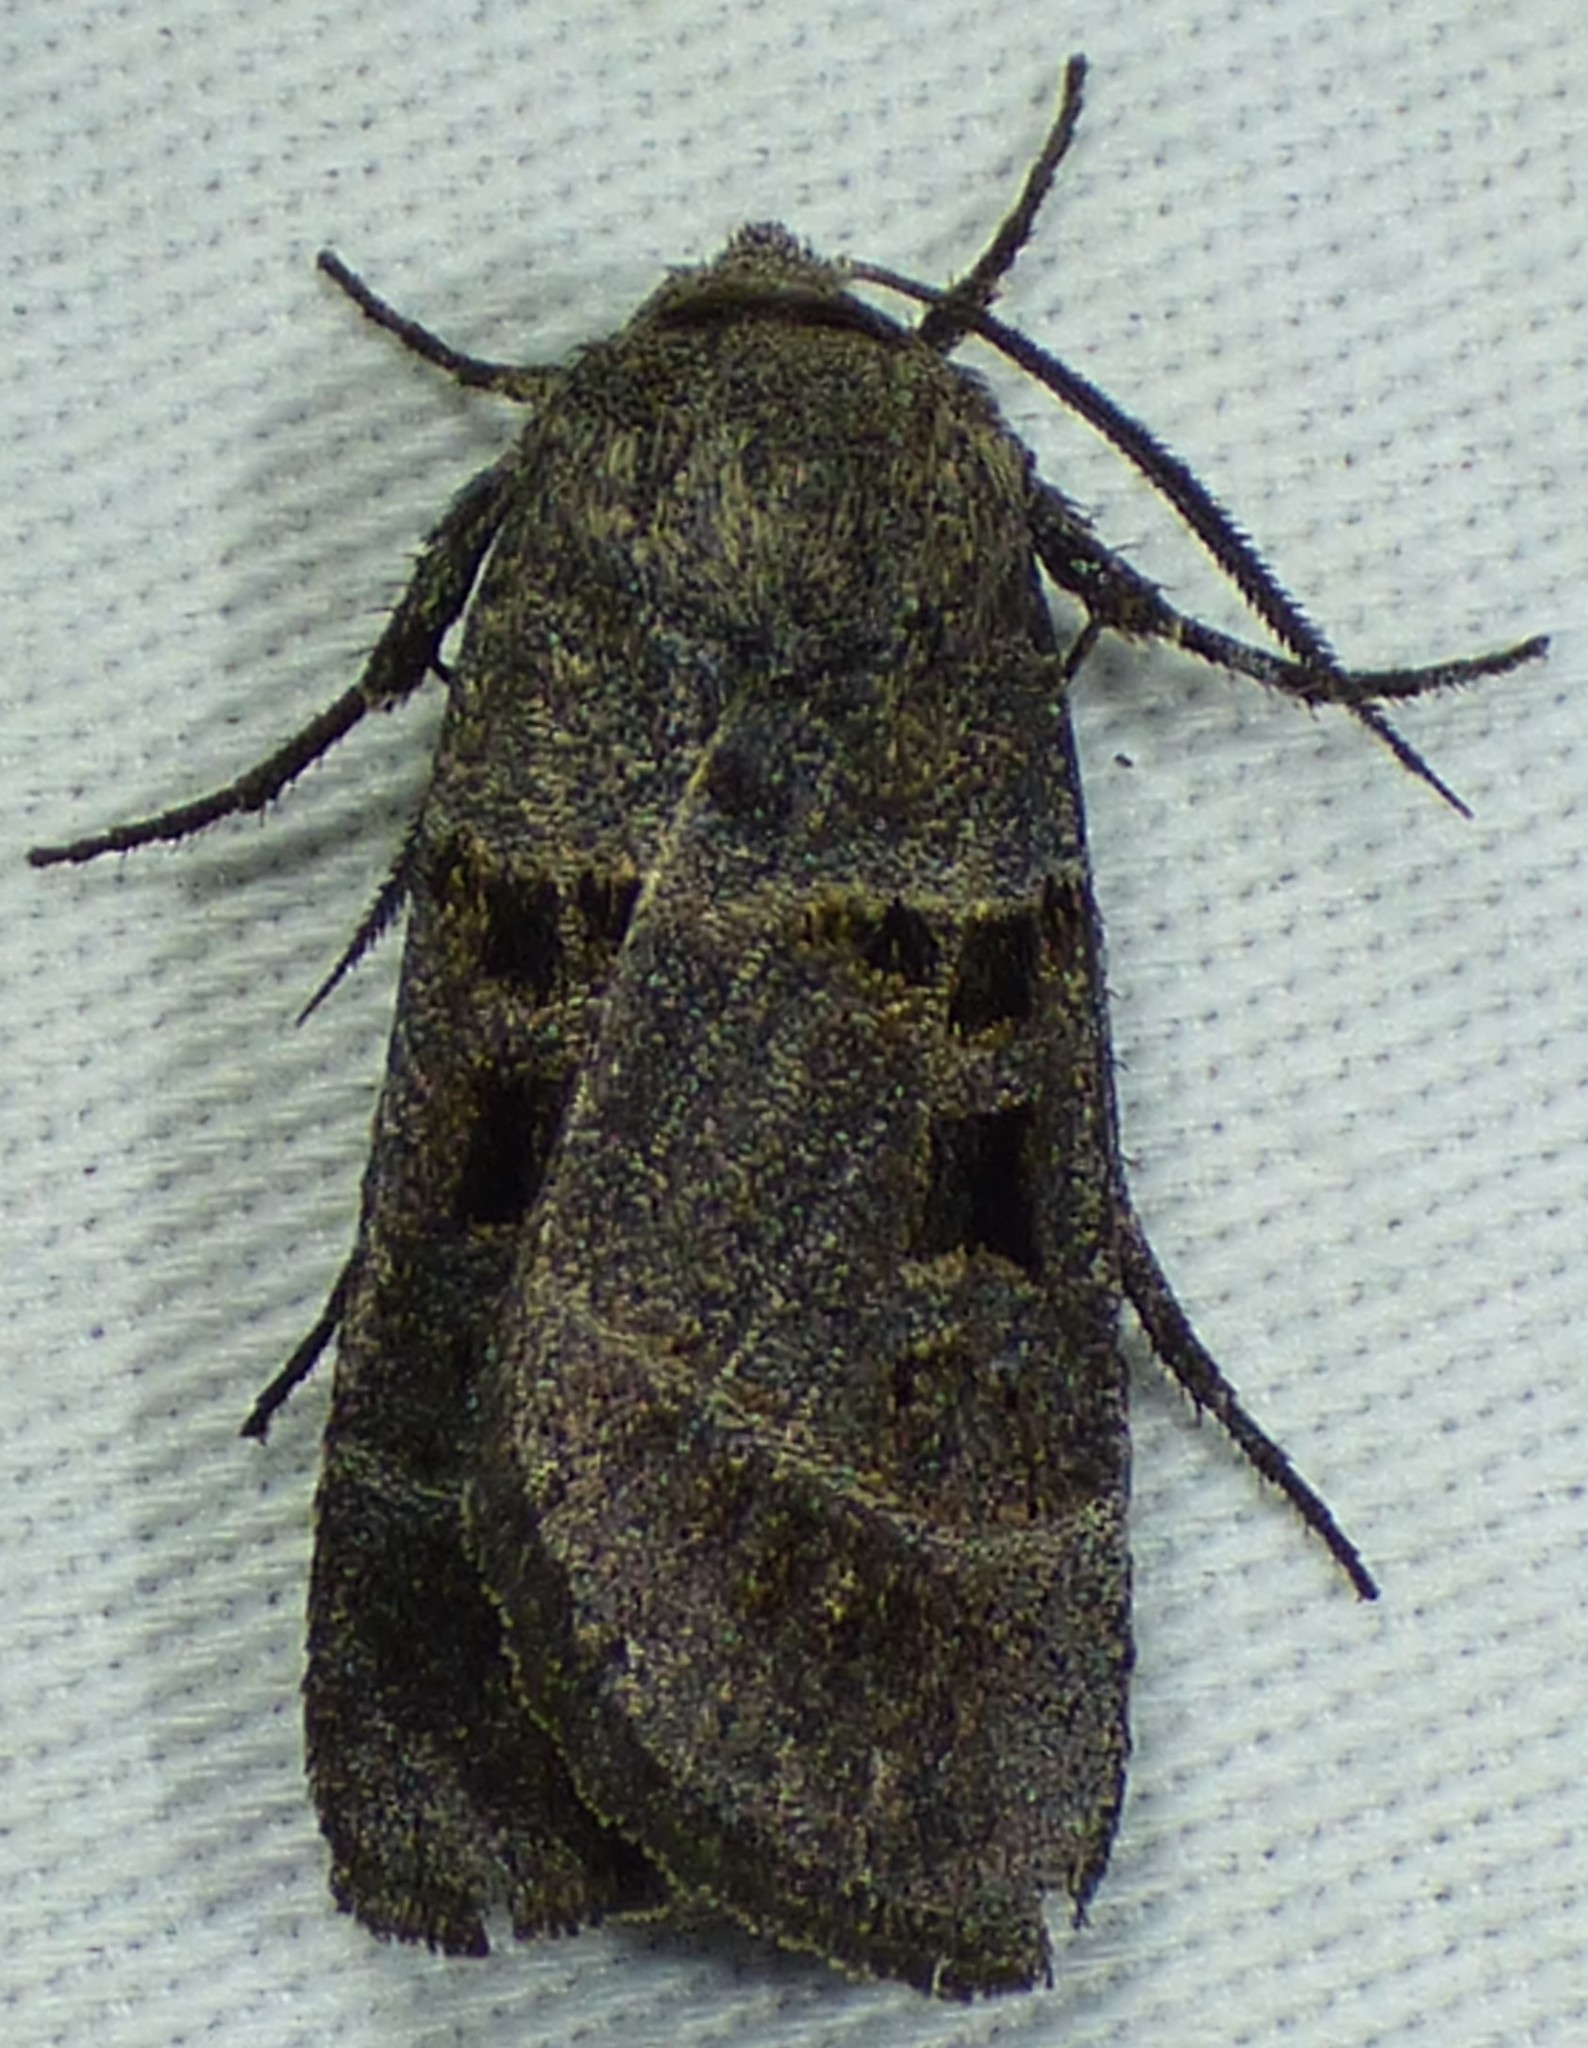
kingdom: Animalia
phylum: Arthropoda
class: Insecta
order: Lepidoptera
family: Noctuidae
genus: Agnorisma
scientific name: Agnorisma bollii
